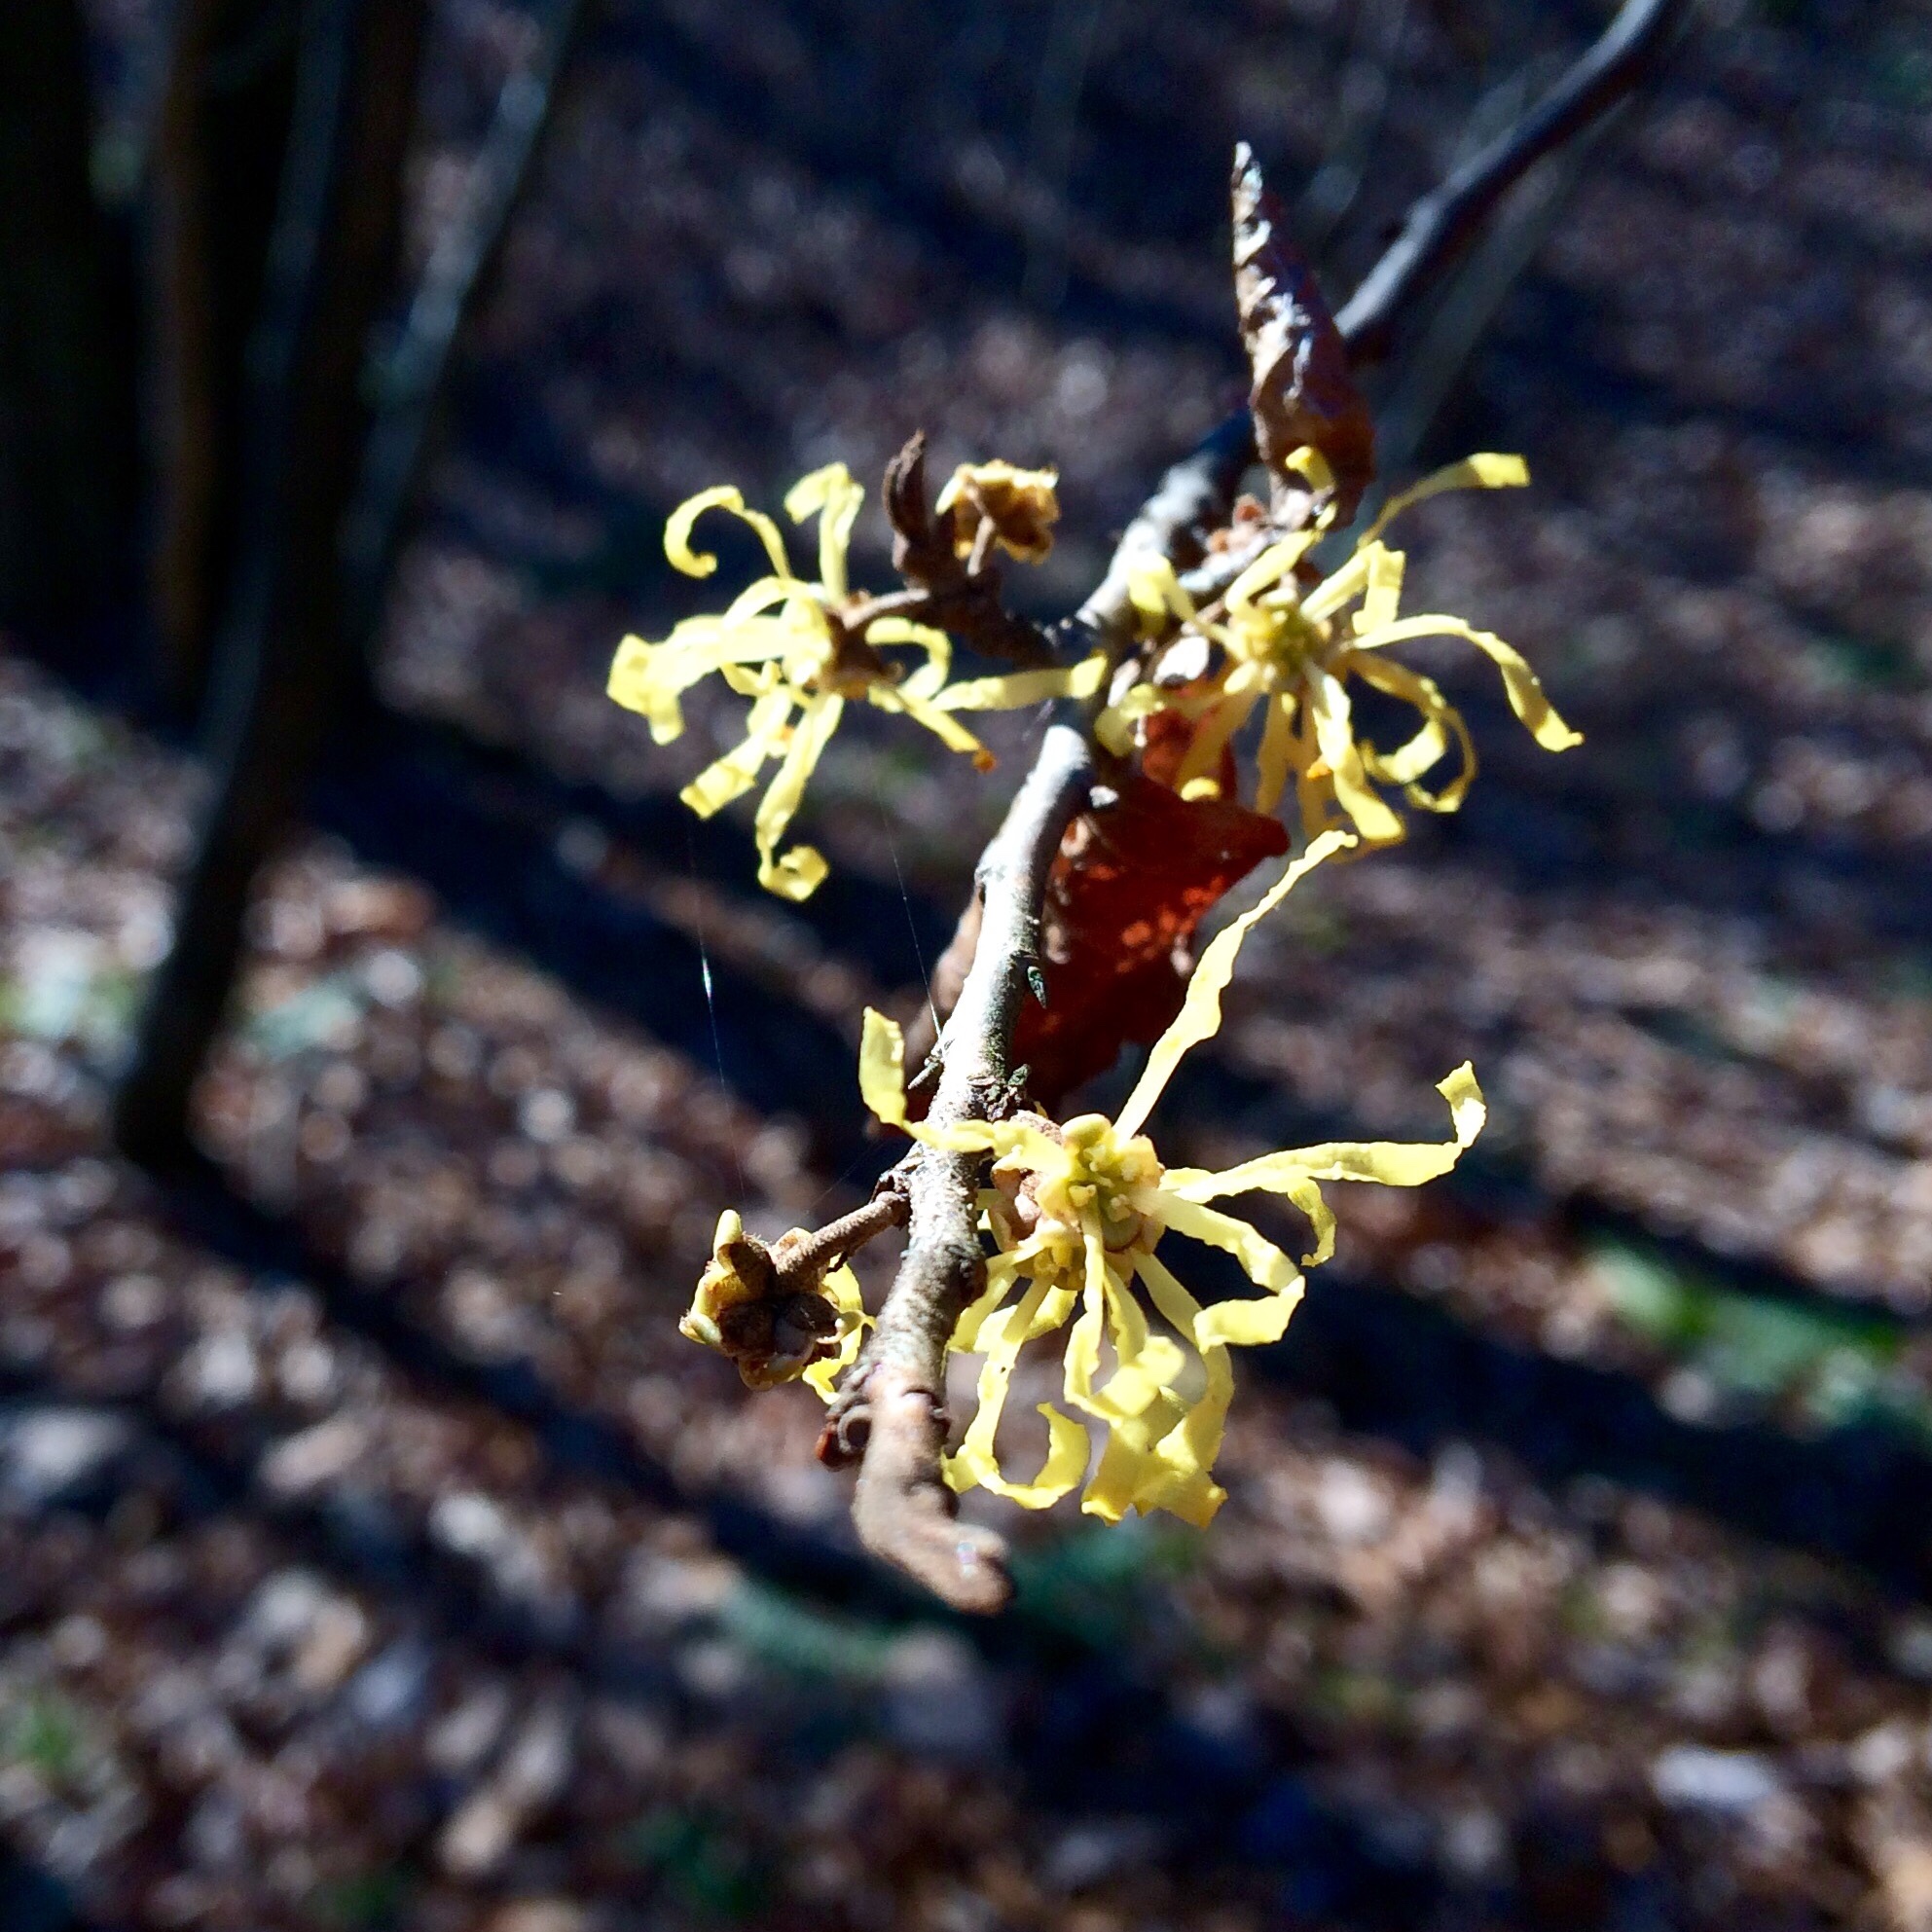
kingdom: Plantae
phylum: Tracheophyta
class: Magnoliopsida
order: Saxifragales
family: Hamamelidaceae
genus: Hamamelis
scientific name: Hamamelis virginiana
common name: Witch-hazel
